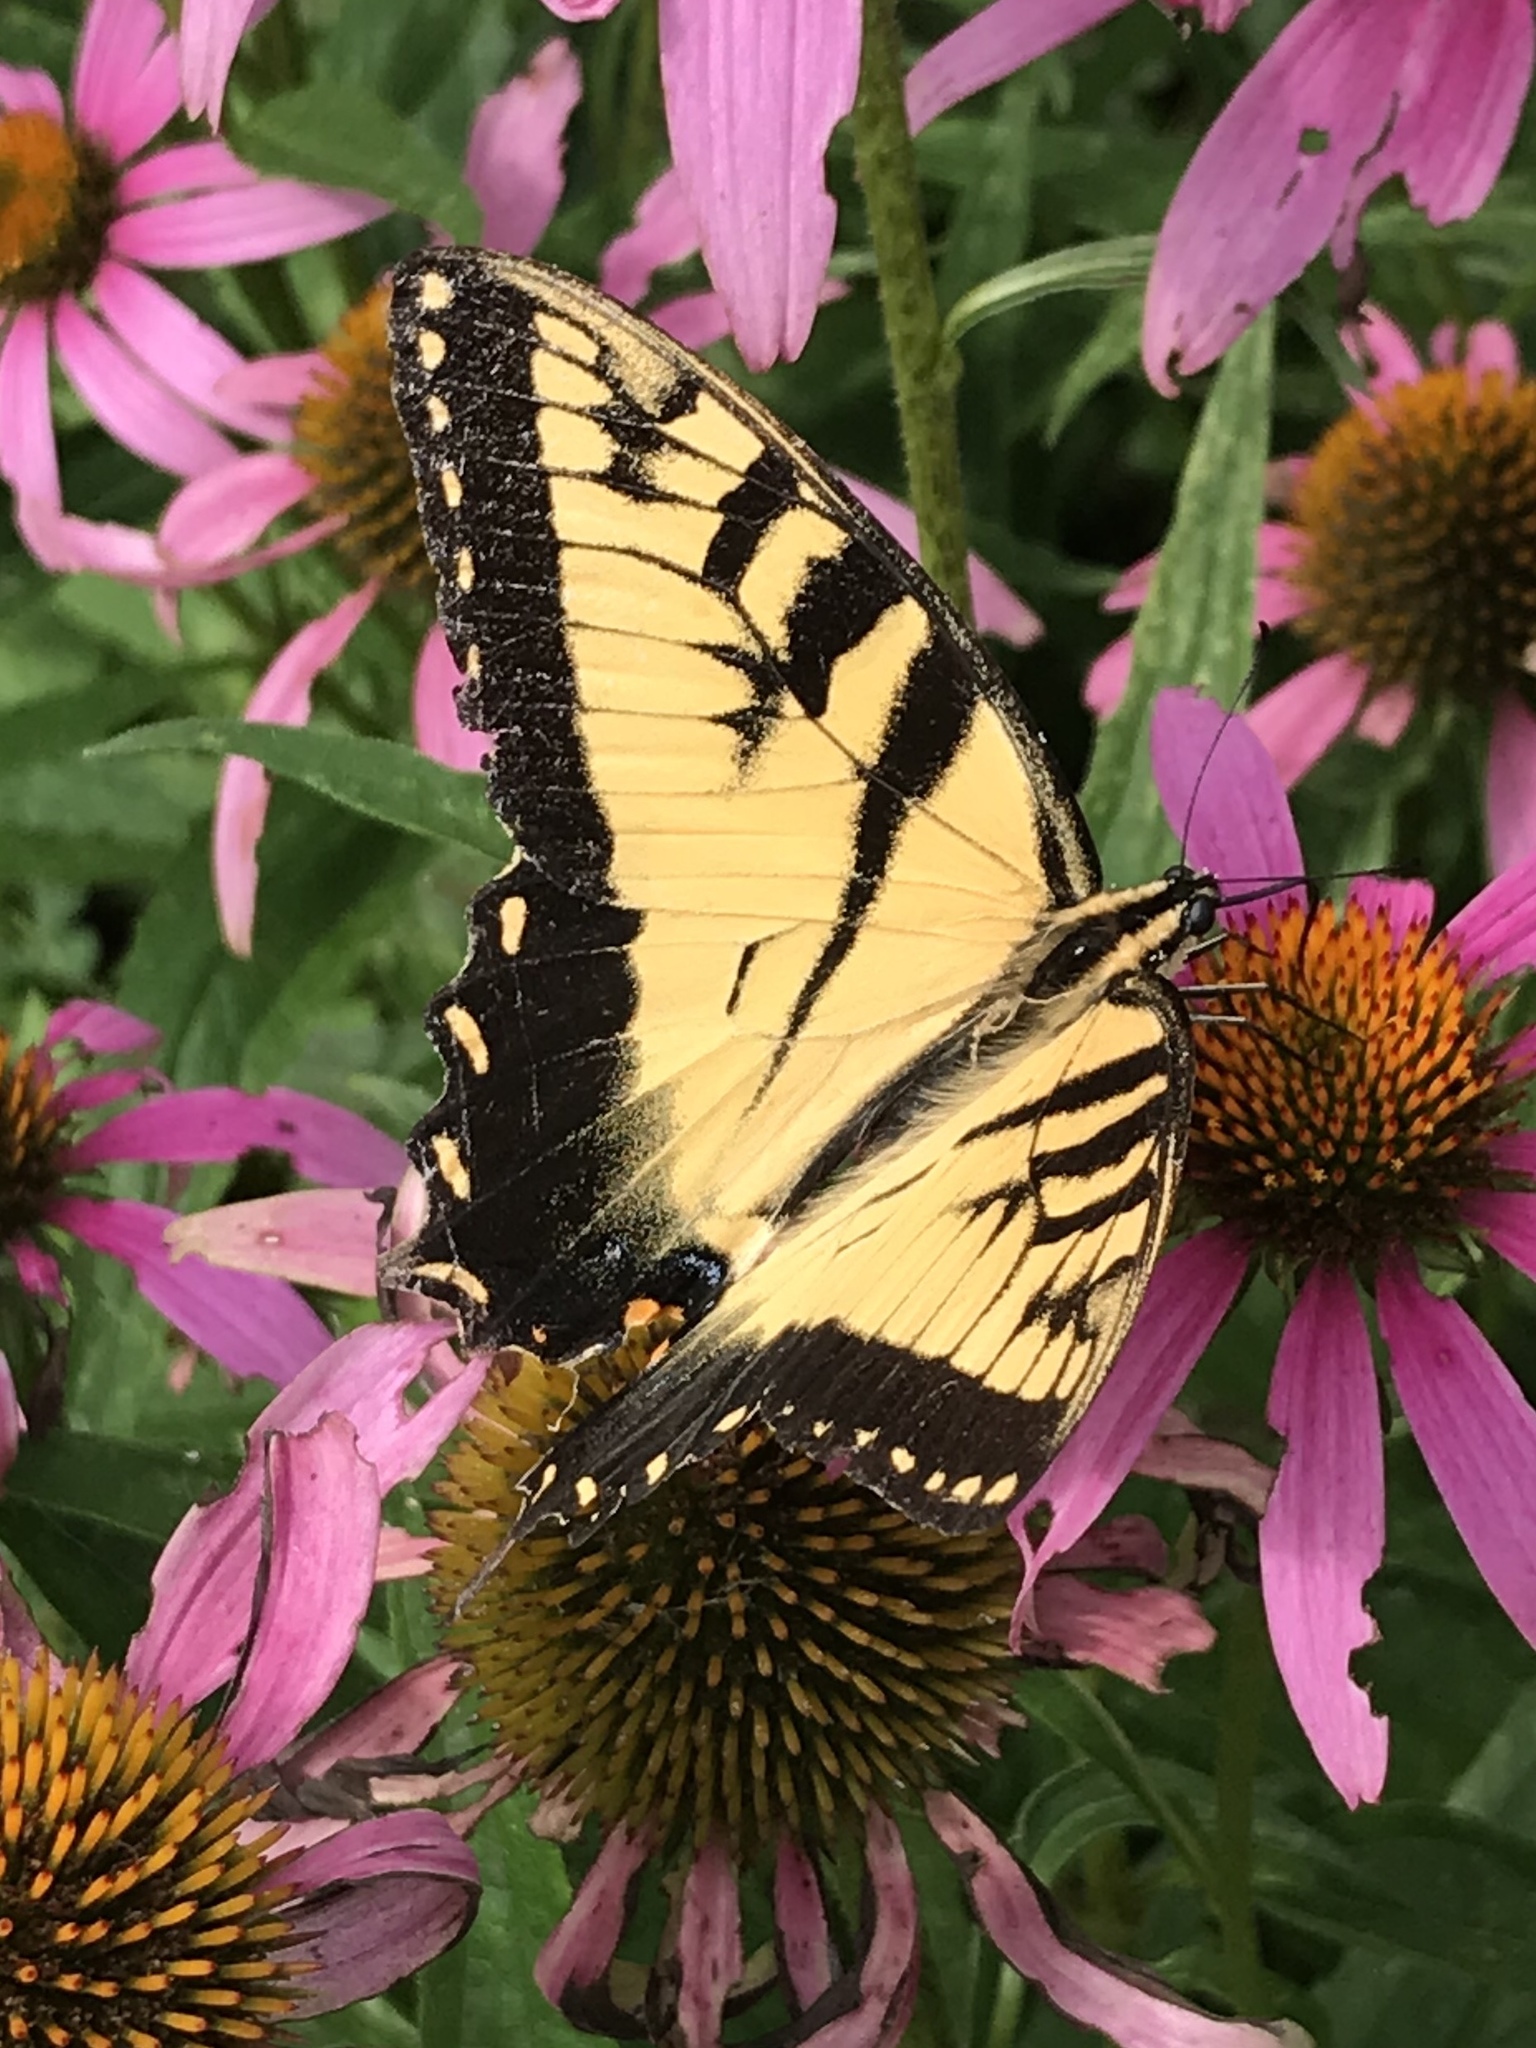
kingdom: Animalia
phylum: Arthropoda
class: Insecta
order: Lepidoptera
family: Papilionidae
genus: Papilio
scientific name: Papilio glaucus
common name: Tiger swallowtail
